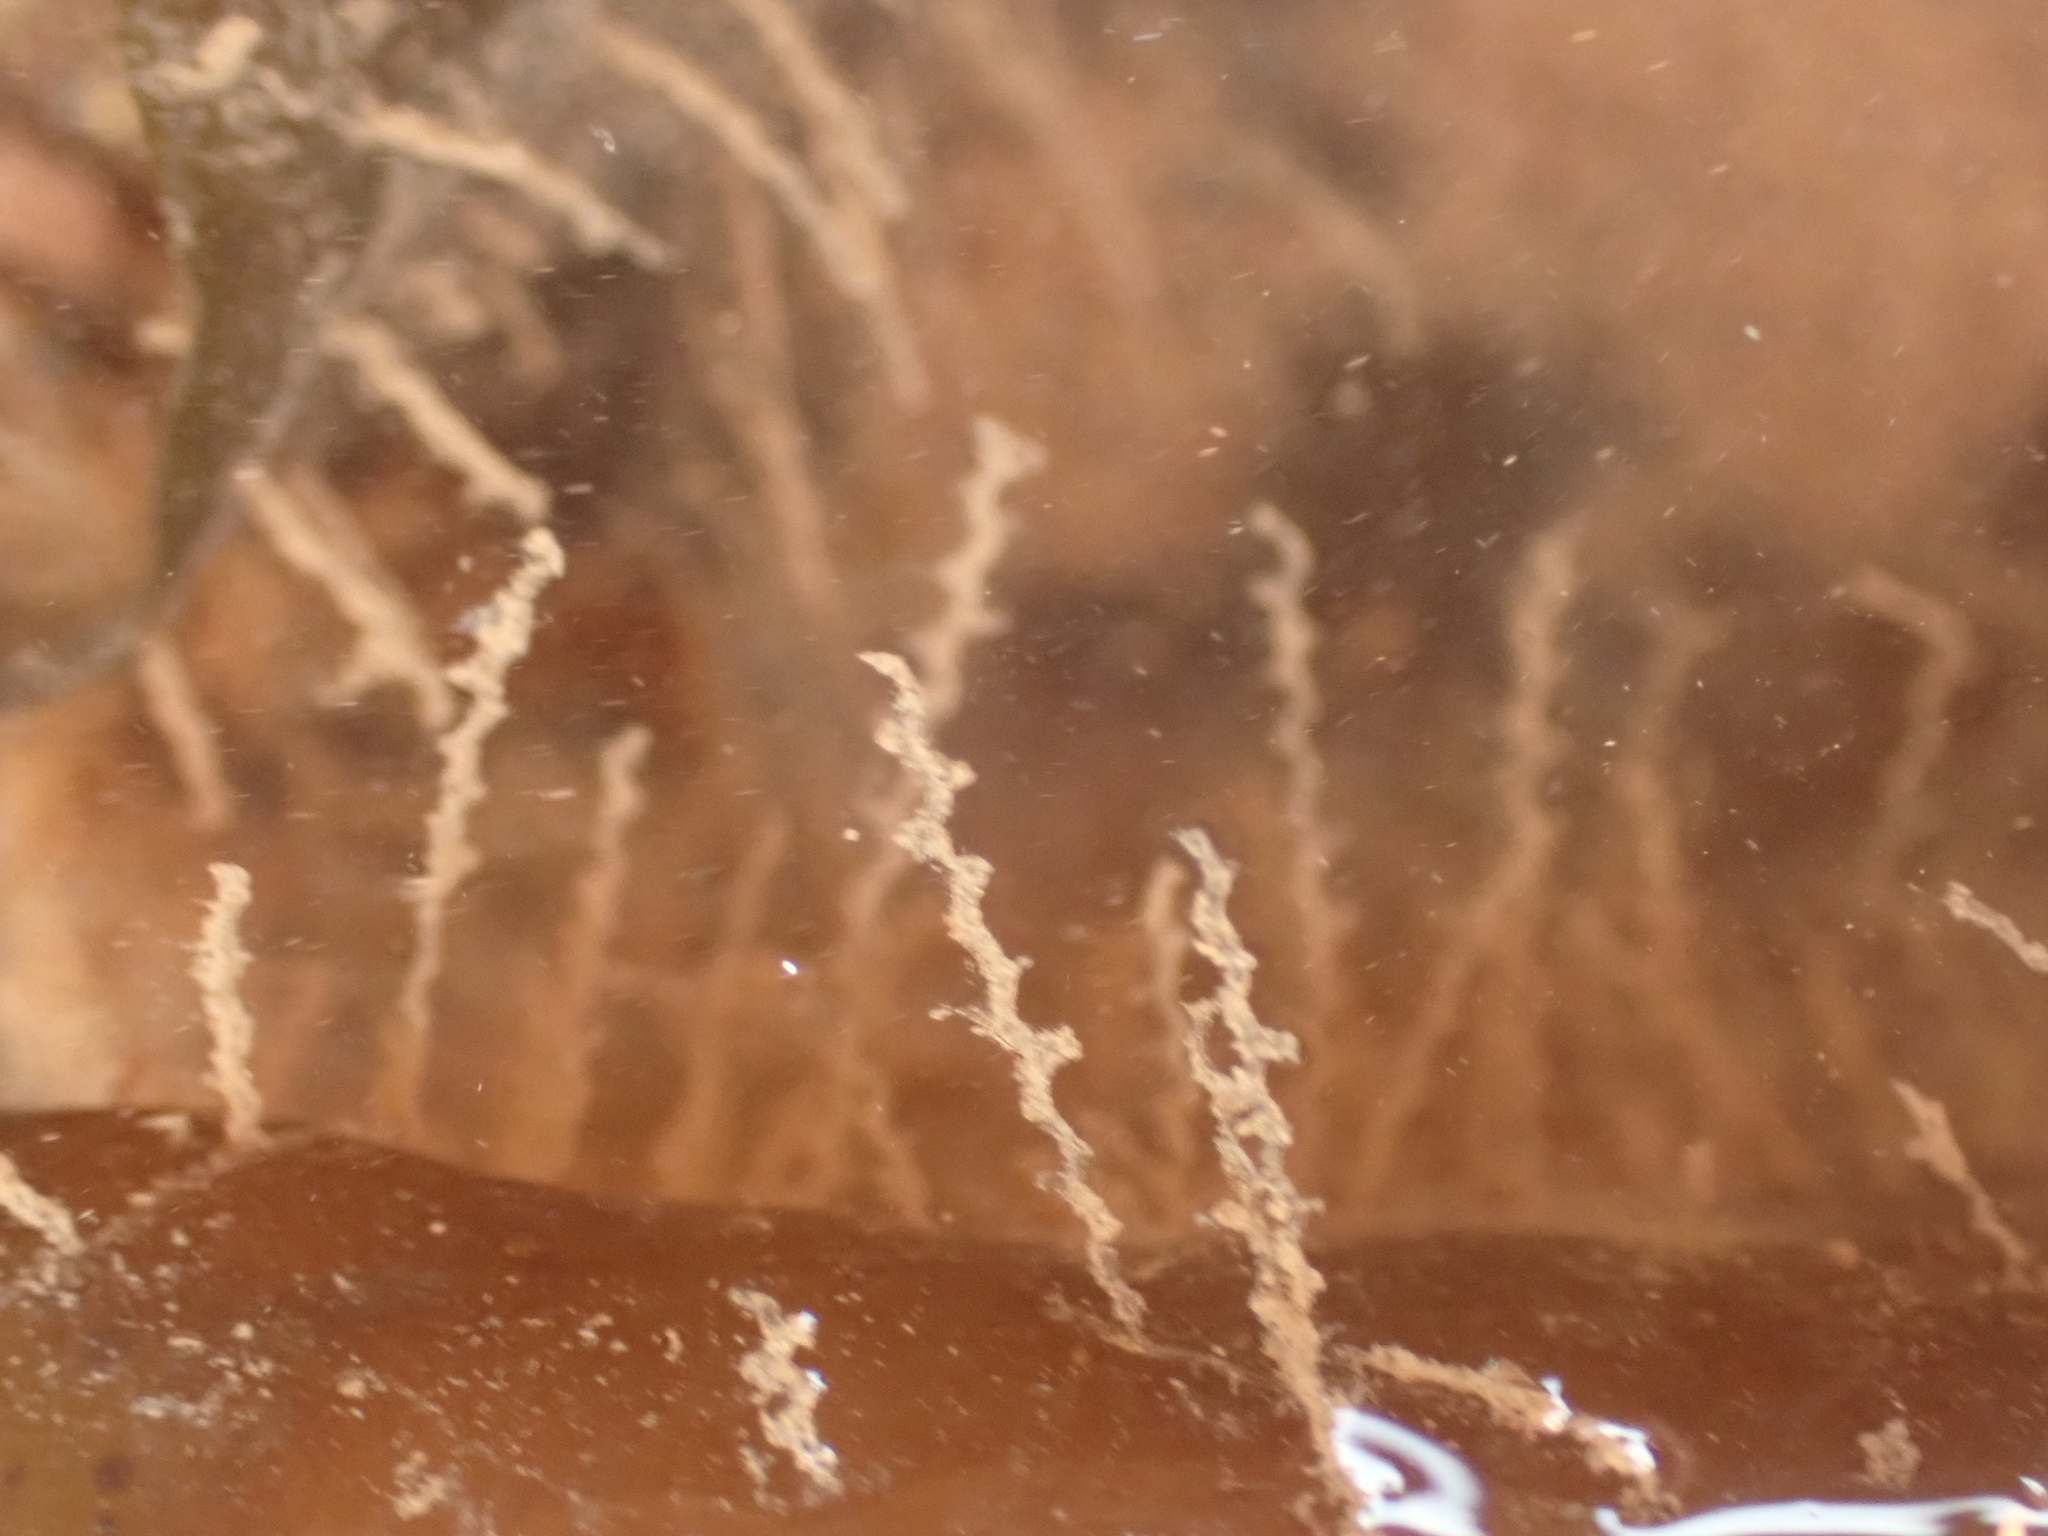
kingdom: Animalia
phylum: Cnidaria
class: Hydrozoa
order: Leptothecata
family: Campanulariidae
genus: Obelia
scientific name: Obelia geniculata
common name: Bell hydroid
